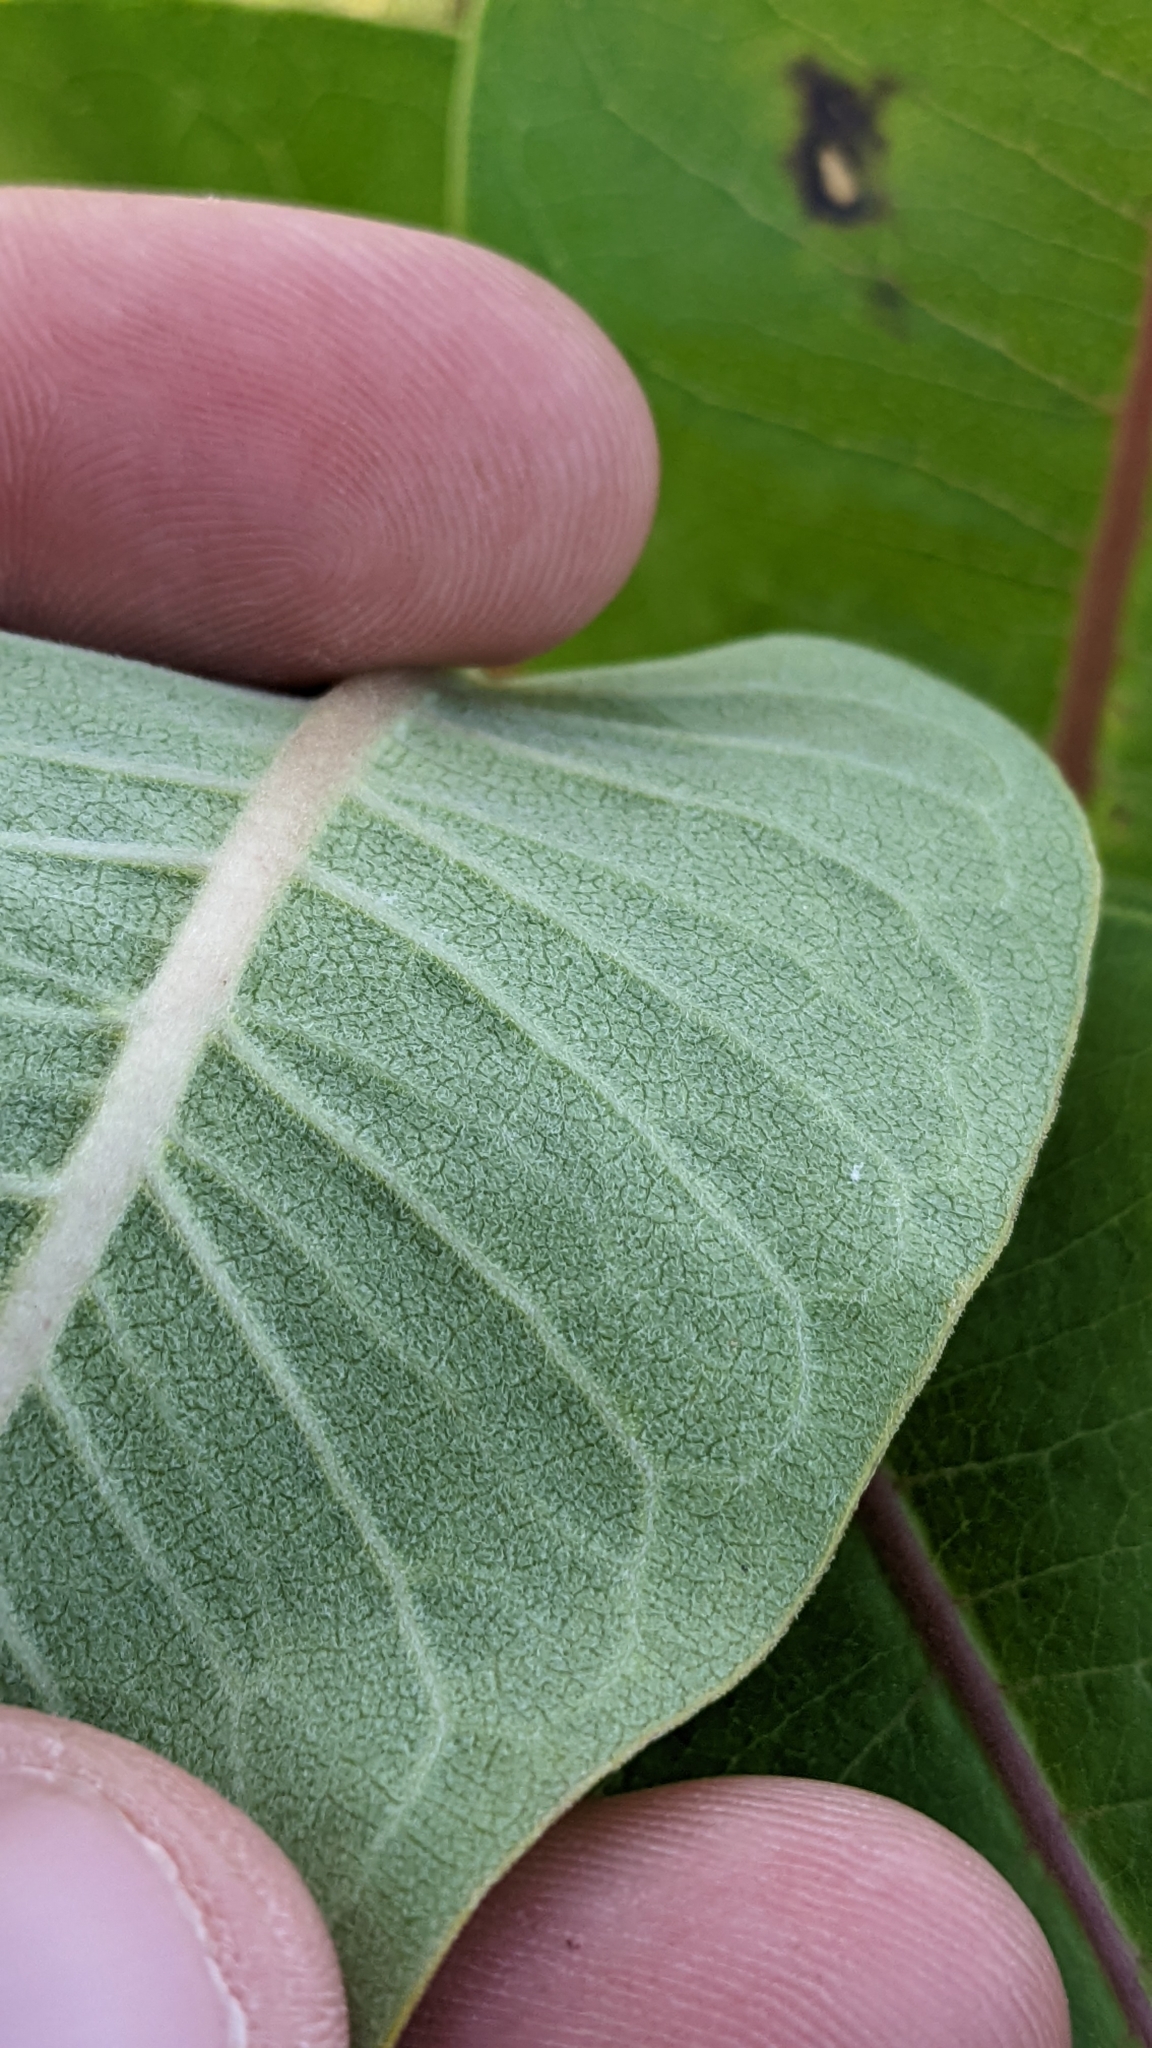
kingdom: Plantae
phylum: Tracheophyta
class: Magnoliopsida
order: Gentianales
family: Apocynaceae
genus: Asclepias
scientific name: Asclepias
